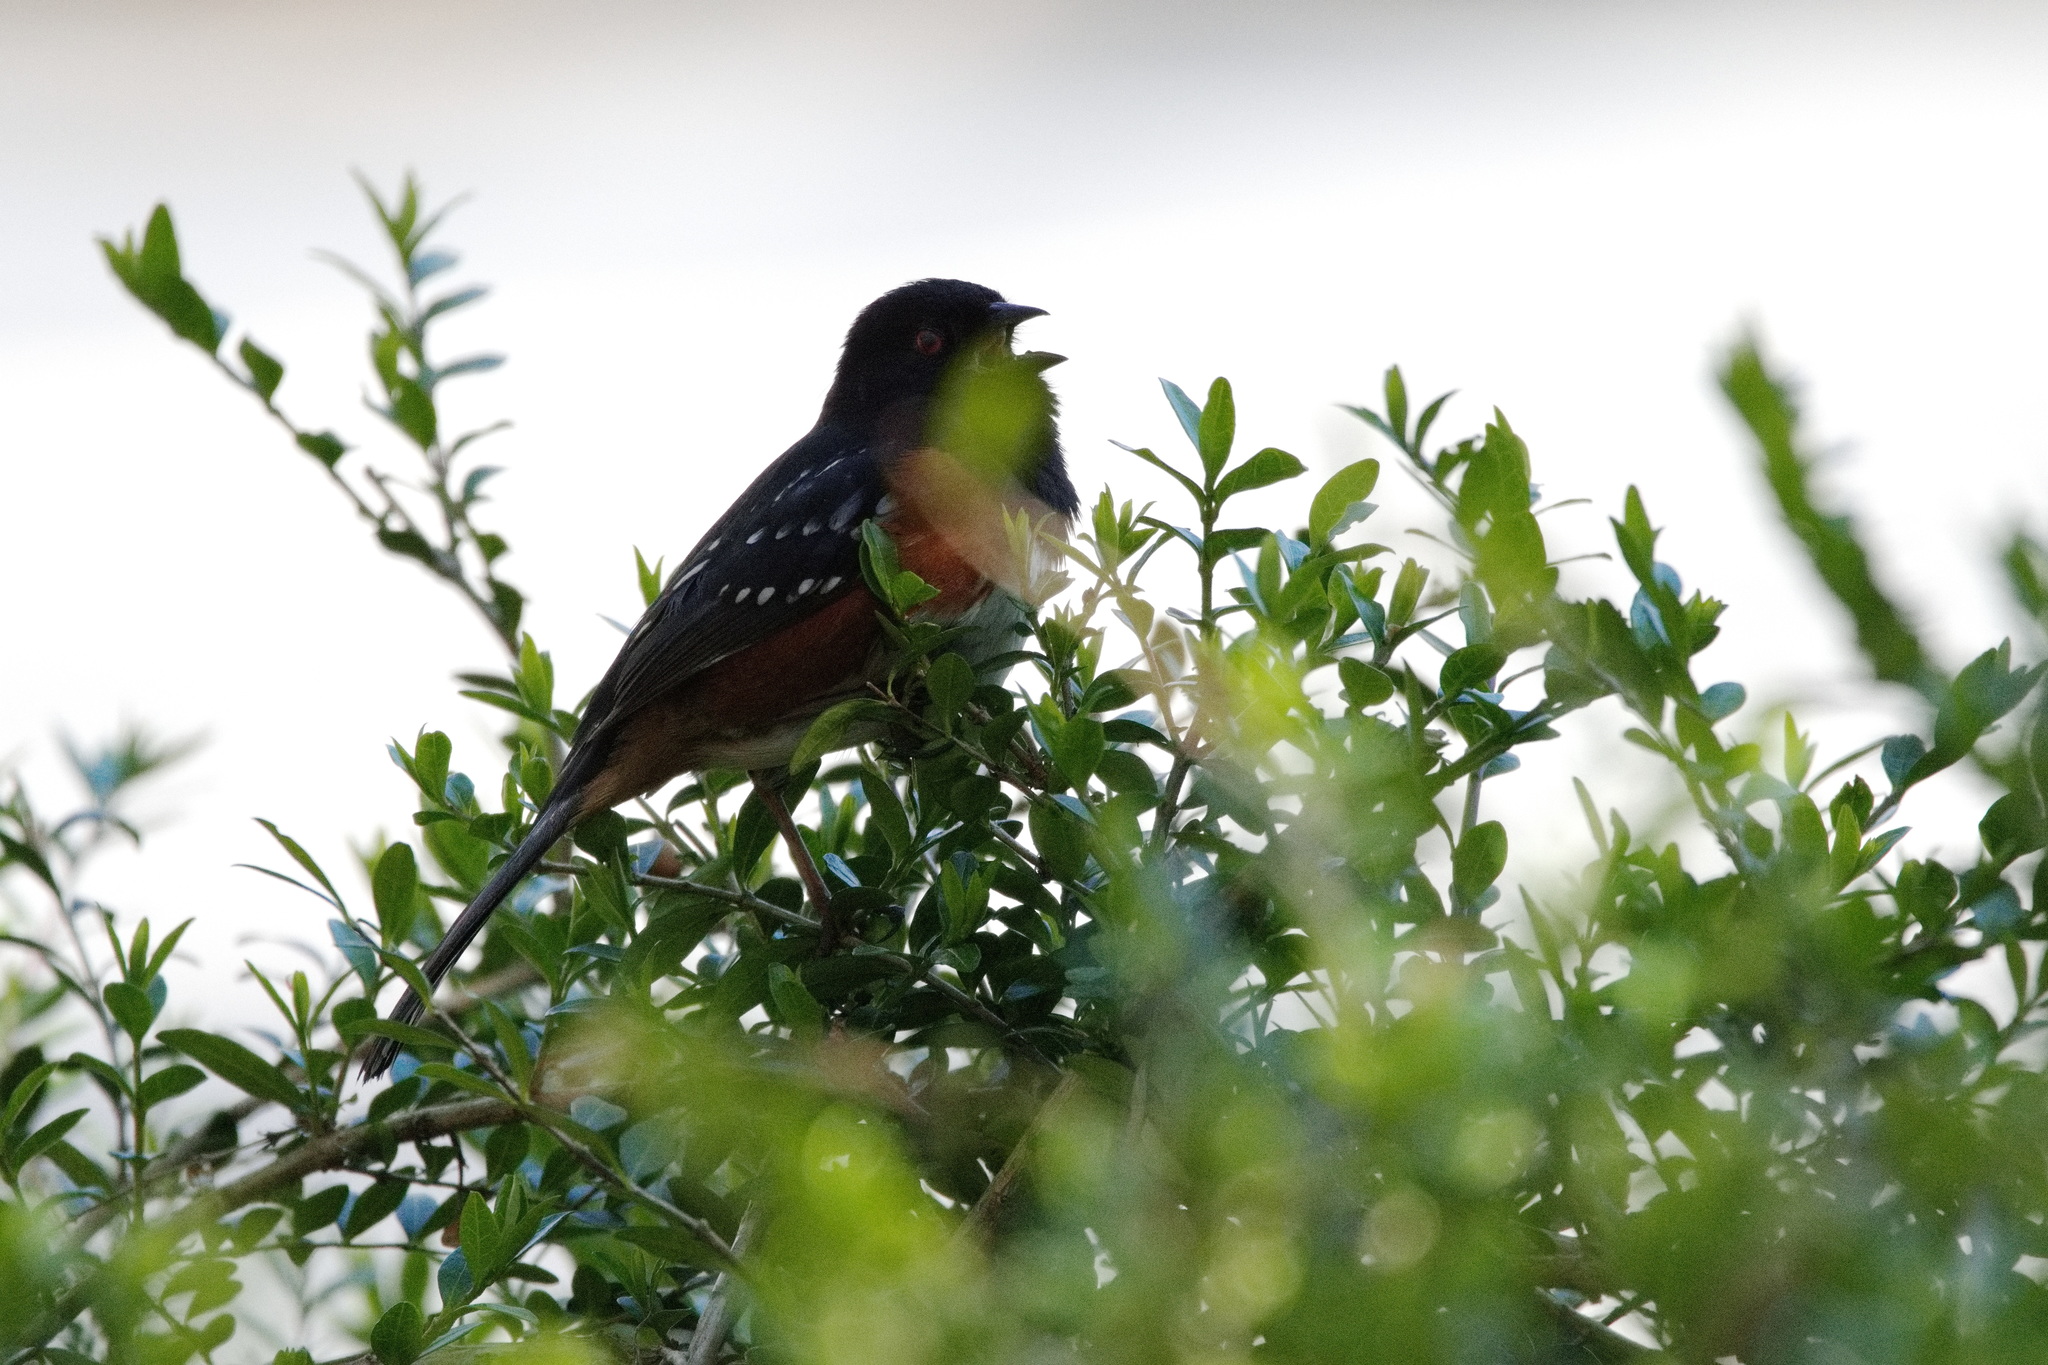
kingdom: Animalia
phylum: Chordata
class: Aves
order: Passeriformes
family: Passerellidae
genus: Pipilo
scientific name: Pipilo maculatus
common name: Spotted towhee
